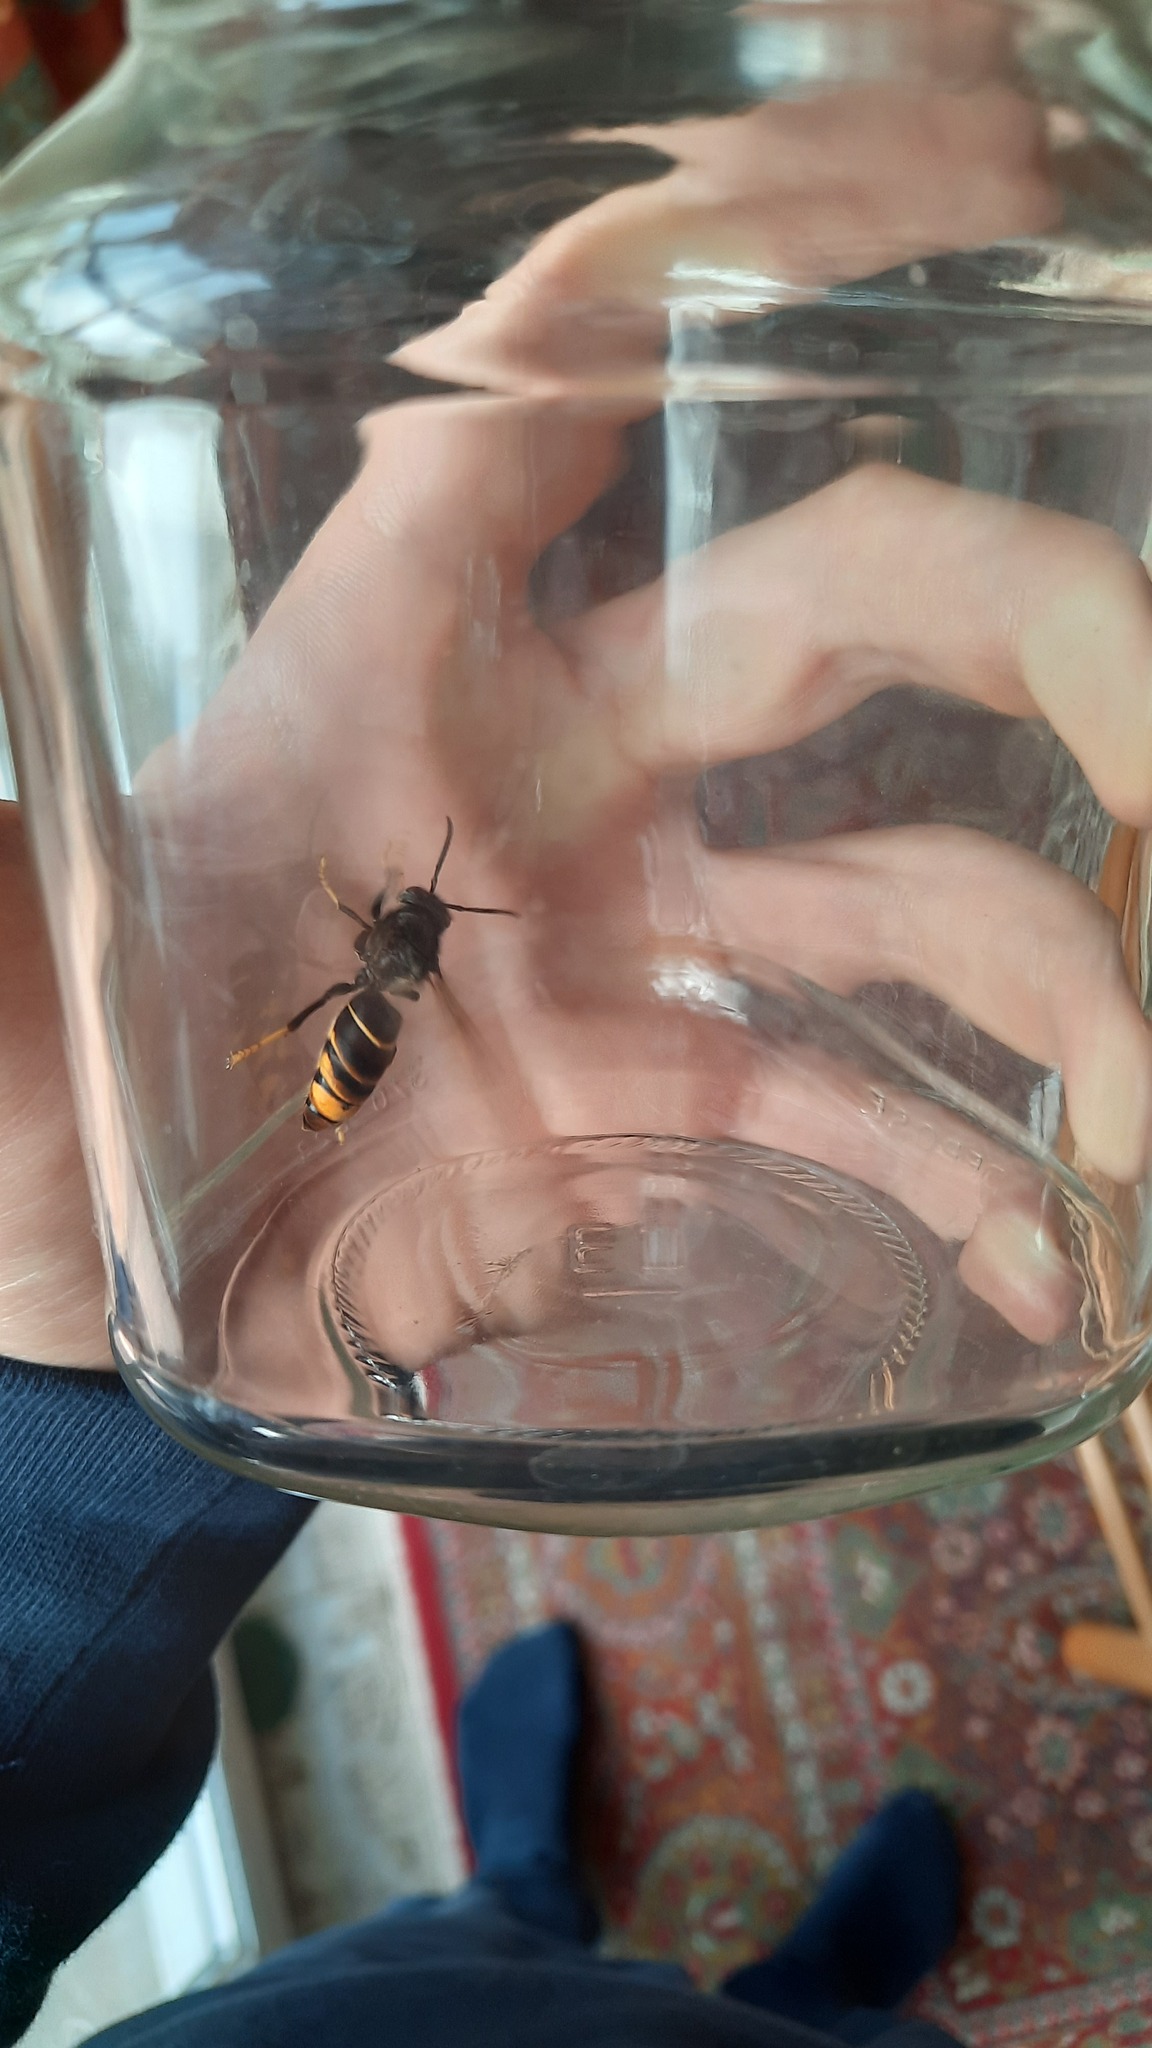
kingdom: Animalia
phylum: Arthropoda
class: Insecta
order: Hymenoptera
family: Vespidae
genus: Vespa
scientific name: Vespa velutina
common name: Asian hornet
